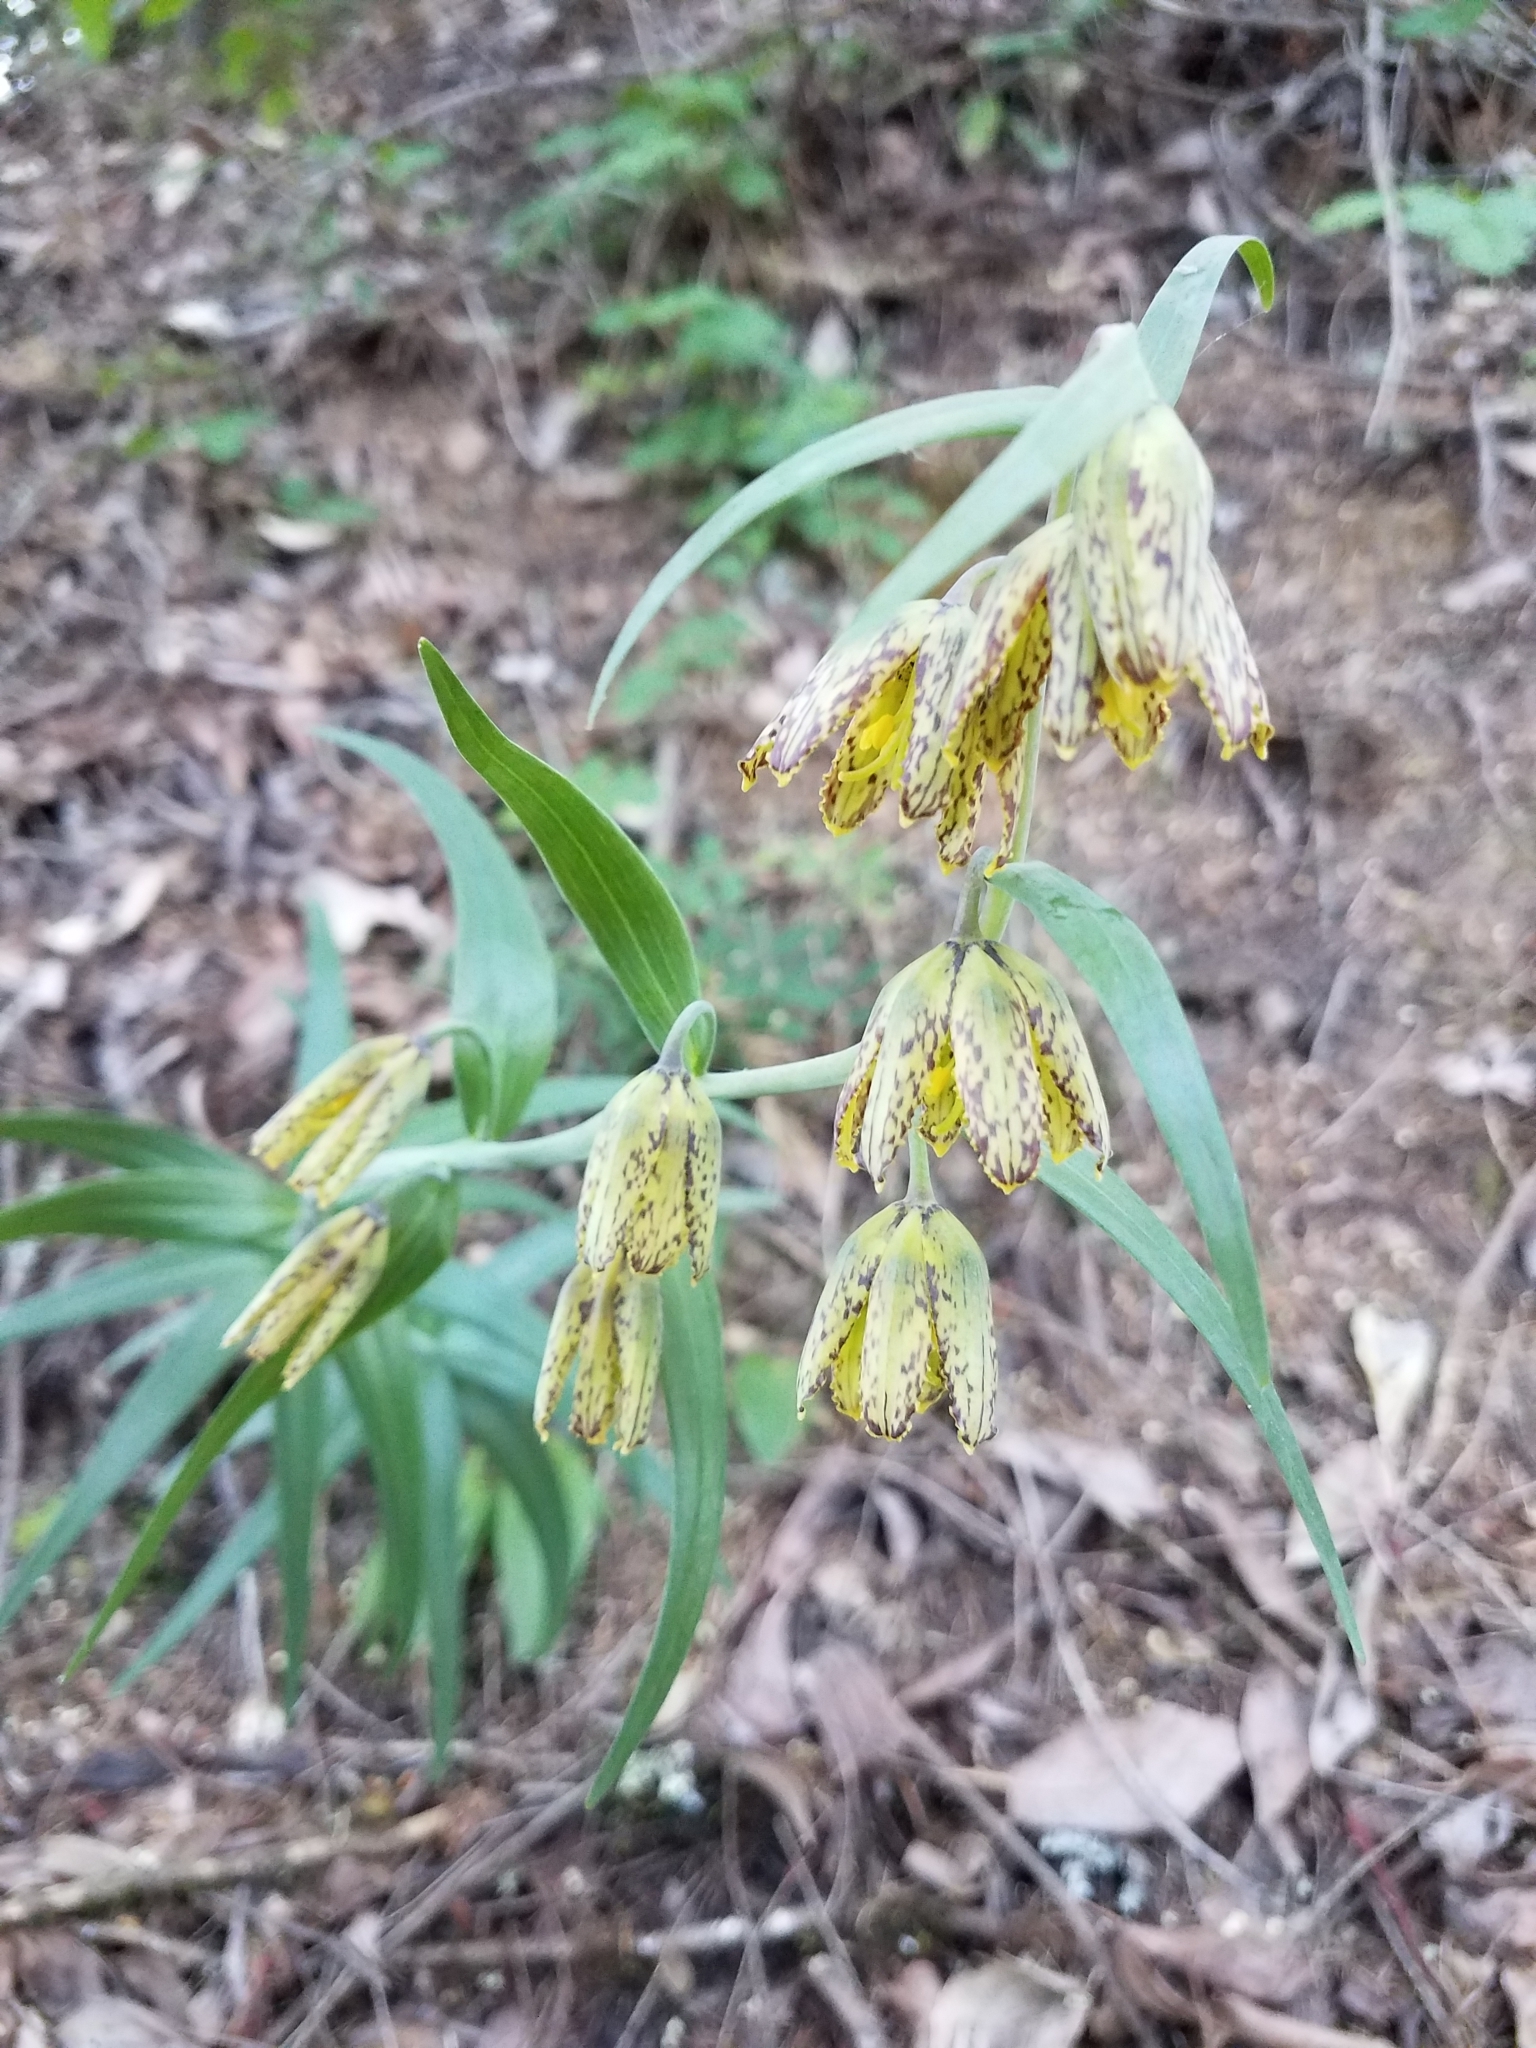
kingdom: Plantae
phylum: Tracheophyta
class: Liliopsida
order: Liliales
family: Liliaceae
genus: Fritillaria
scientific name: Fritillaria affinis
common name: Ojai fritillary
